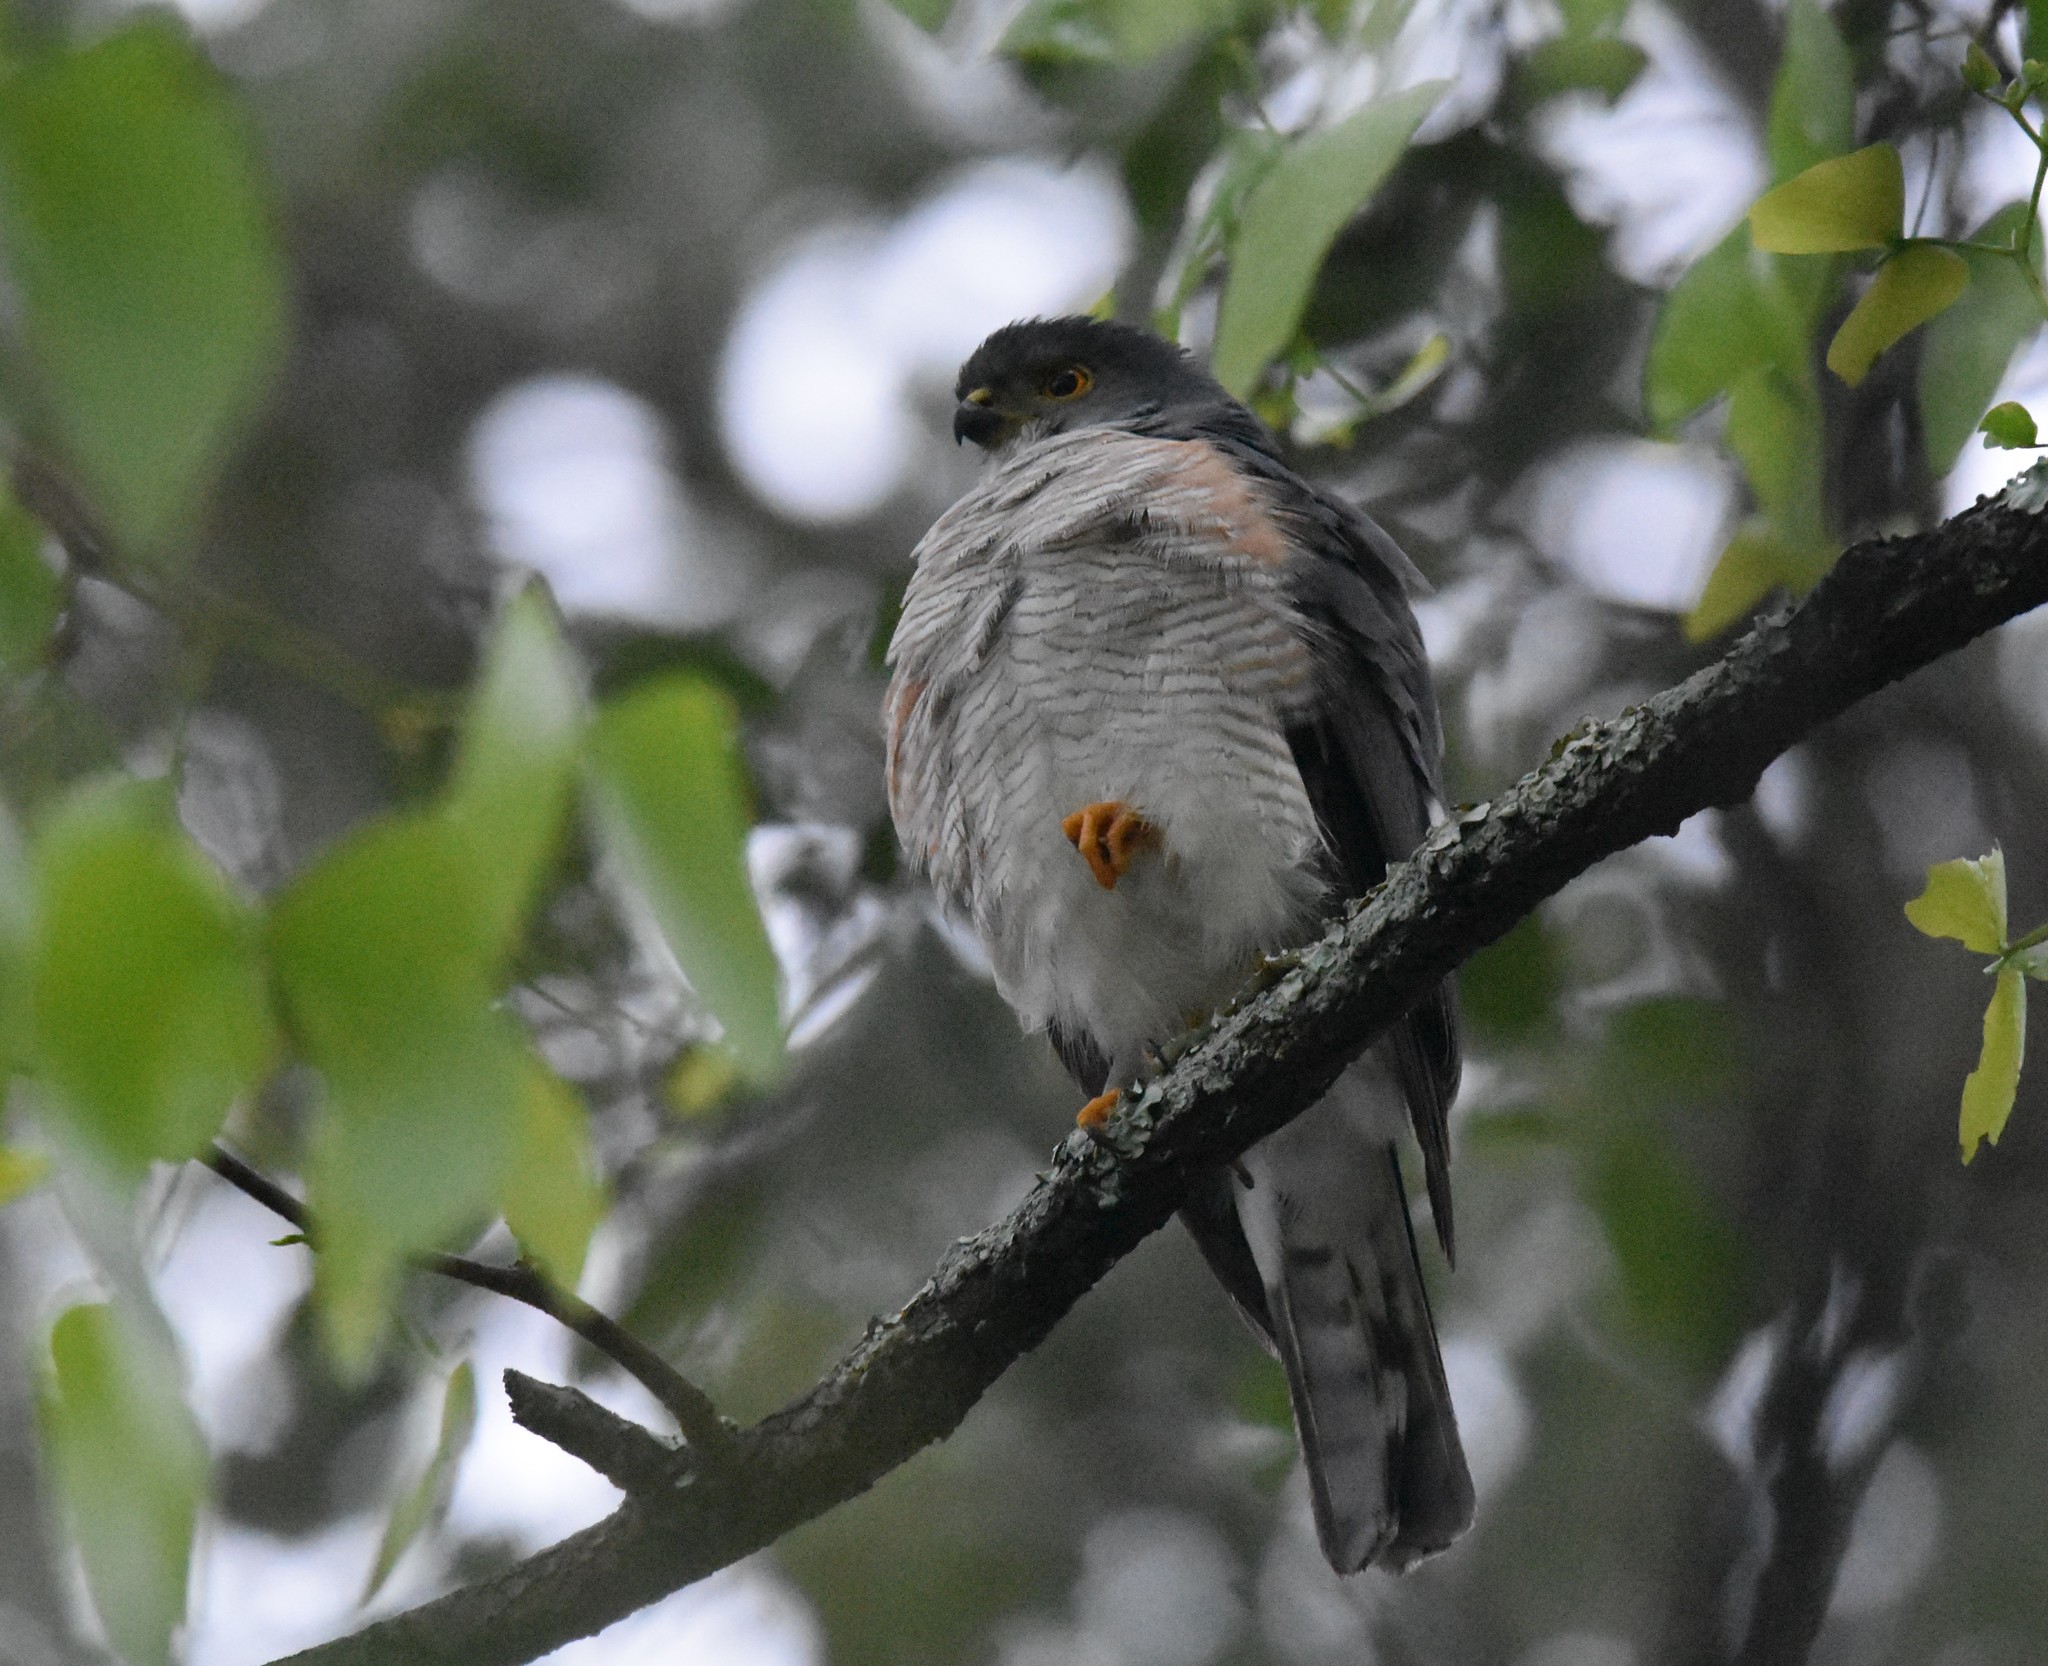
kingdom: Animalia
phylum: Chordata
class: Aves
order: Accipitriformes
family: Accipitridae
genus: Accipiter
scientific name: Accipiter minullus
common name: Little sparrowhawk
